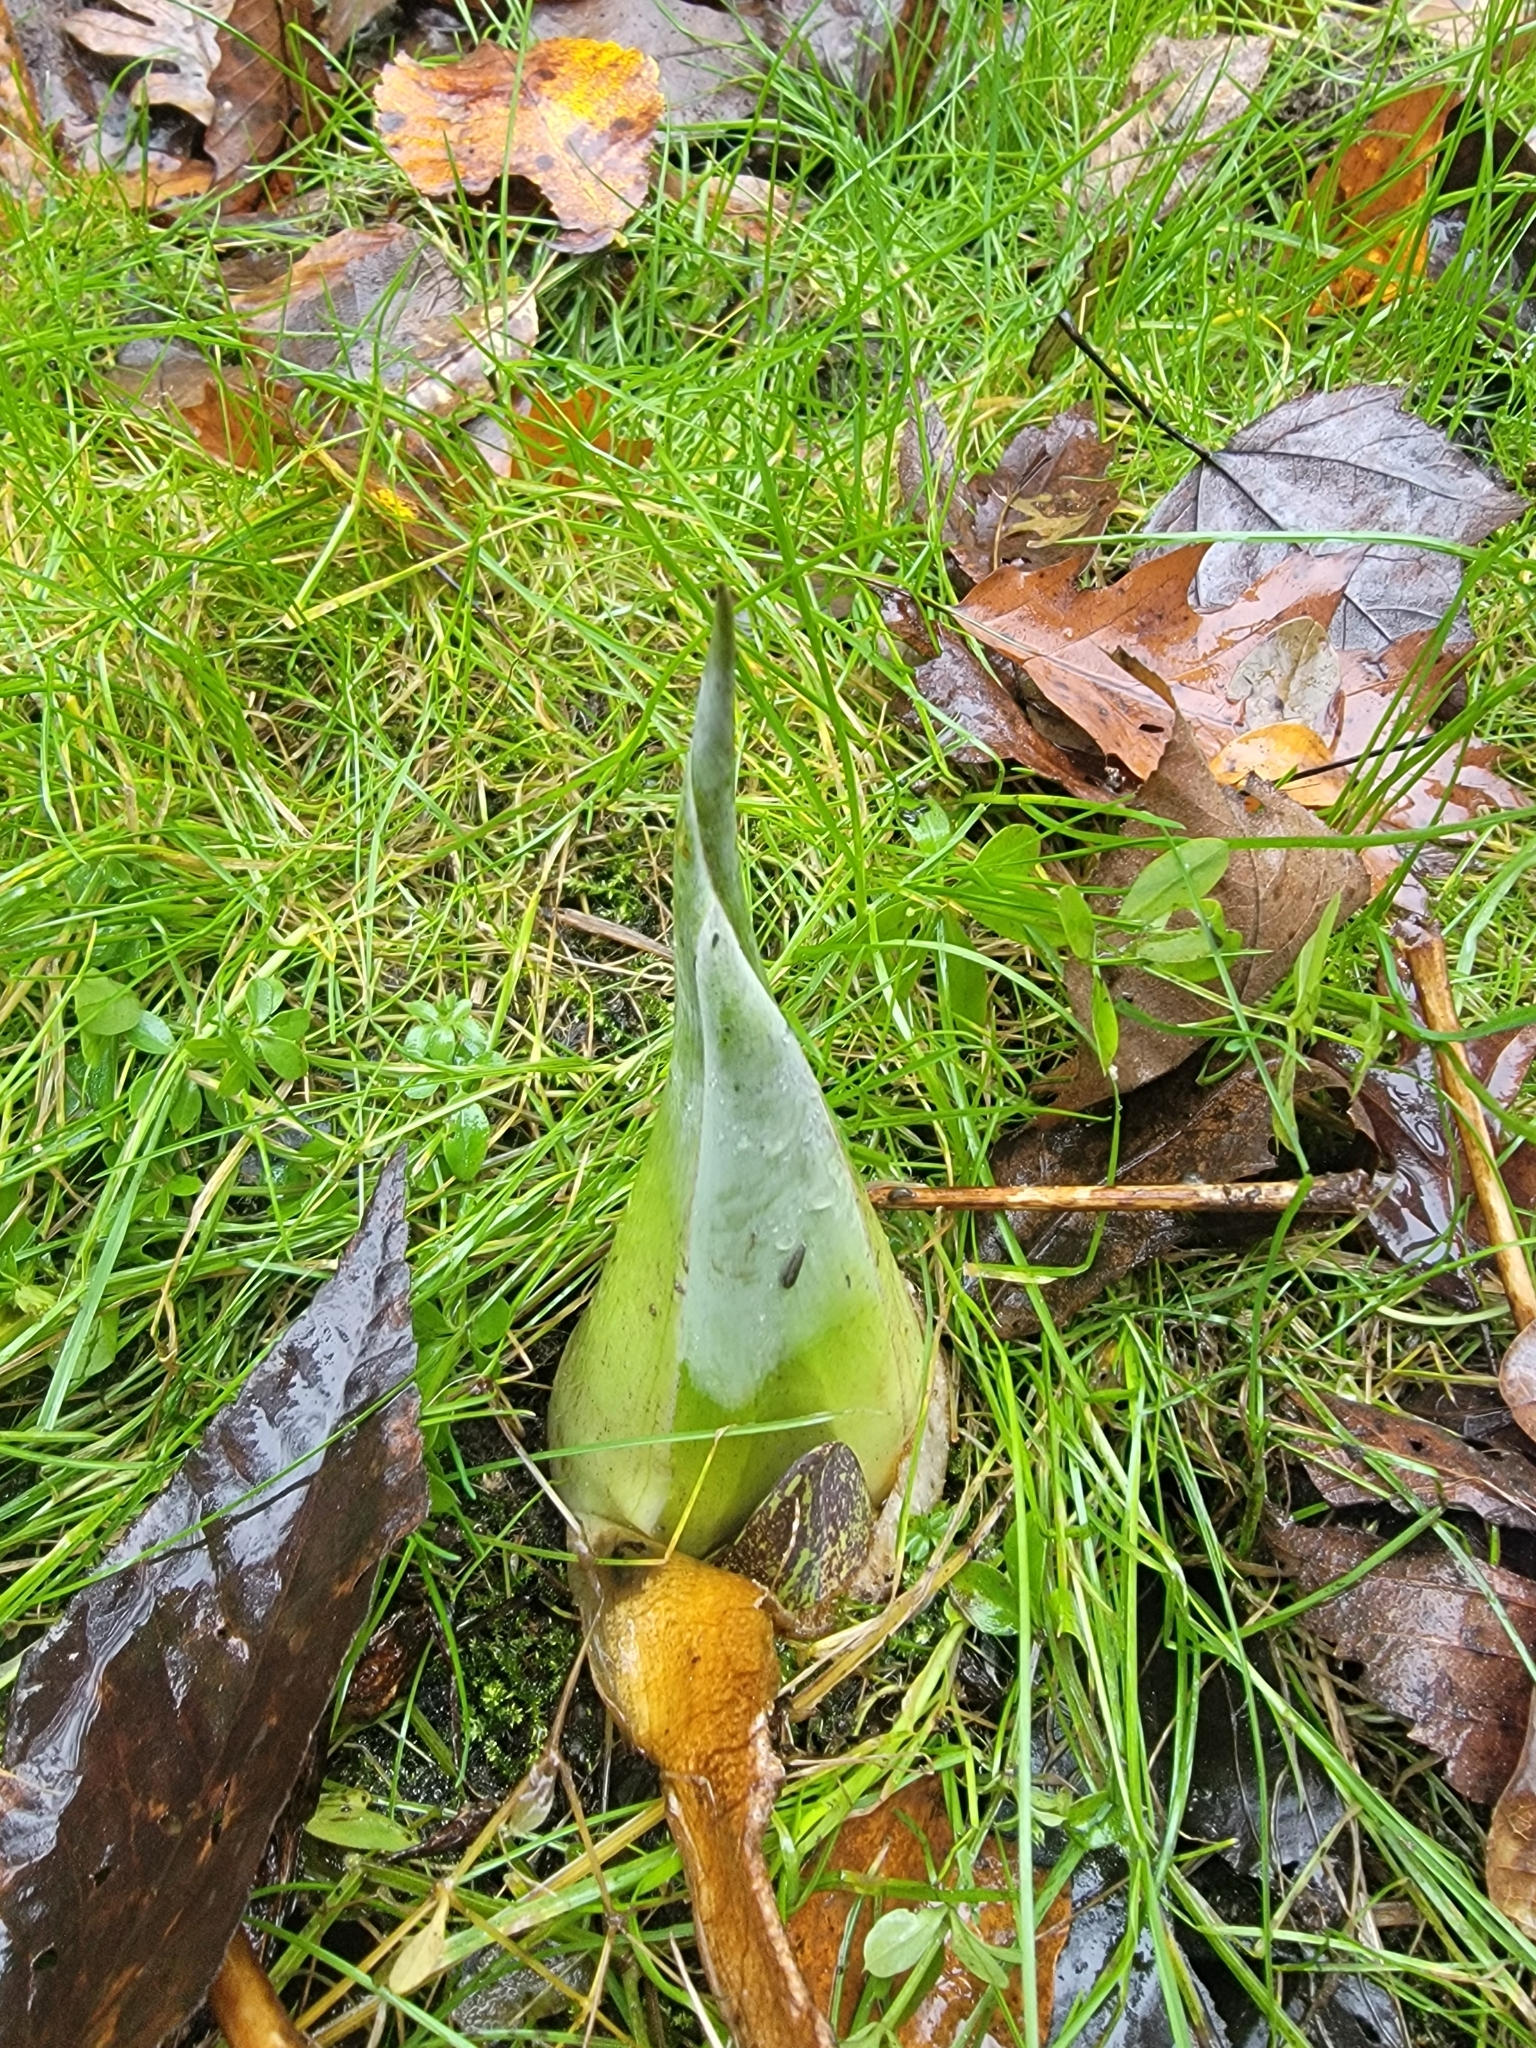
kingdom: Plantae
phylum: Tracheophyta
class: Liliopsida
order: Alismatales
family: Araceae
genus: Symplocarpus
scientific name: Symplocarpus foetidus
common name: Eastern skunk cabbage
